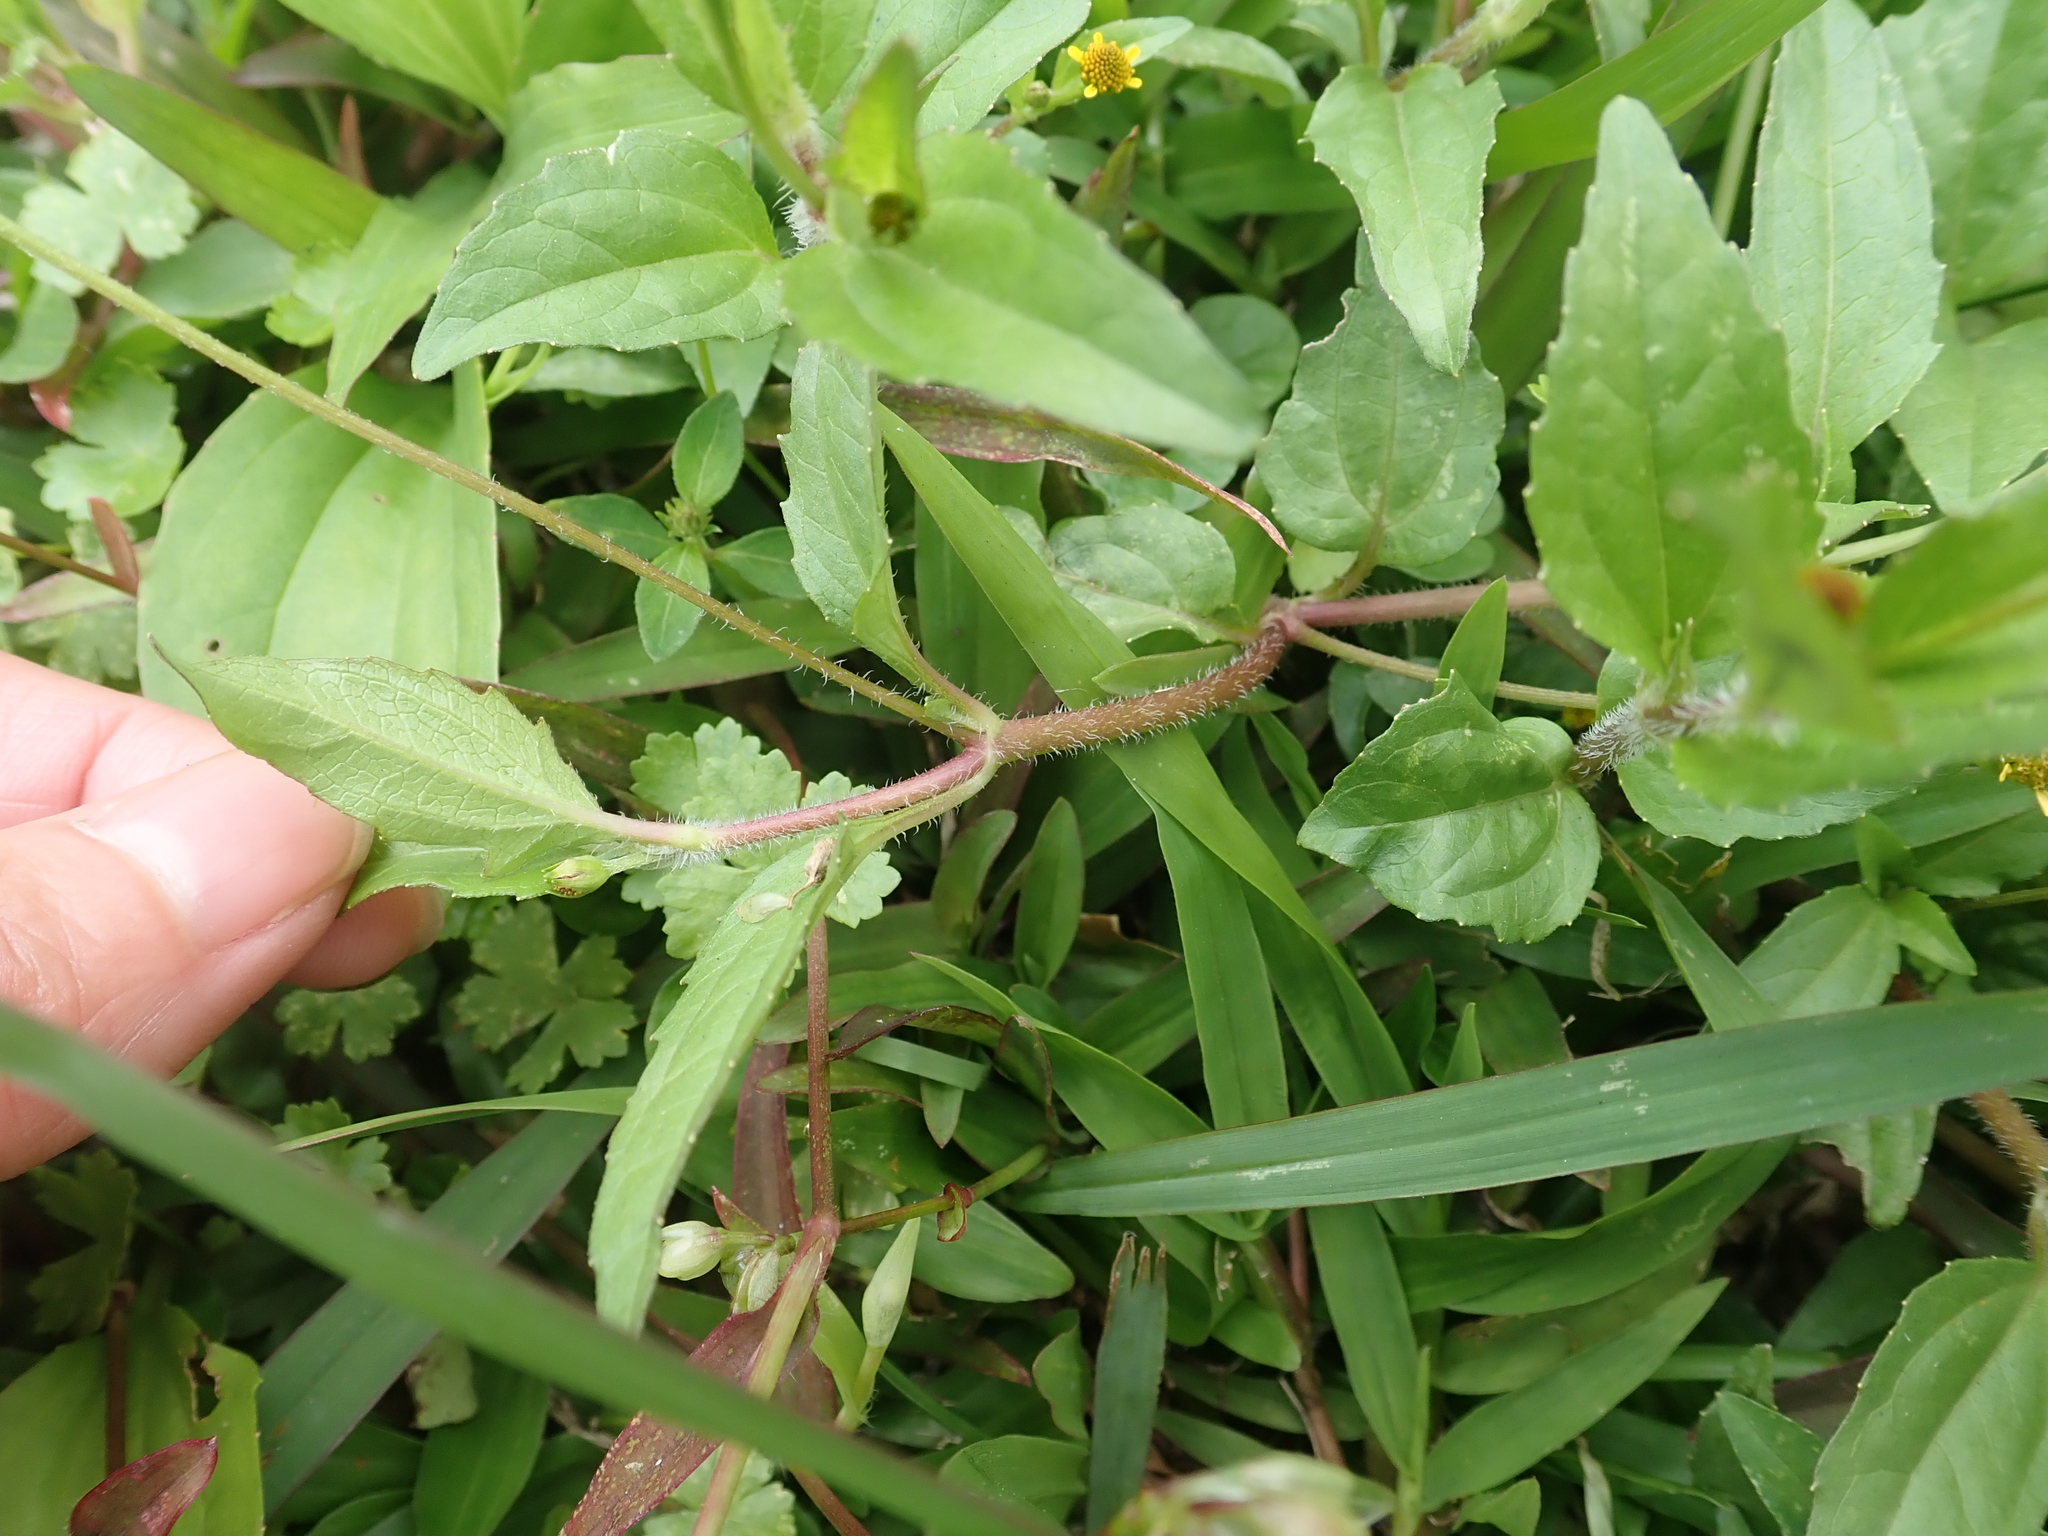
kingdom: Plantae
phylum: Tracheophyta
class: Magnoliopsida
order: Asterales
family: Asteraceae
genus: Acmella
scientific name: Acmella uliginosa
